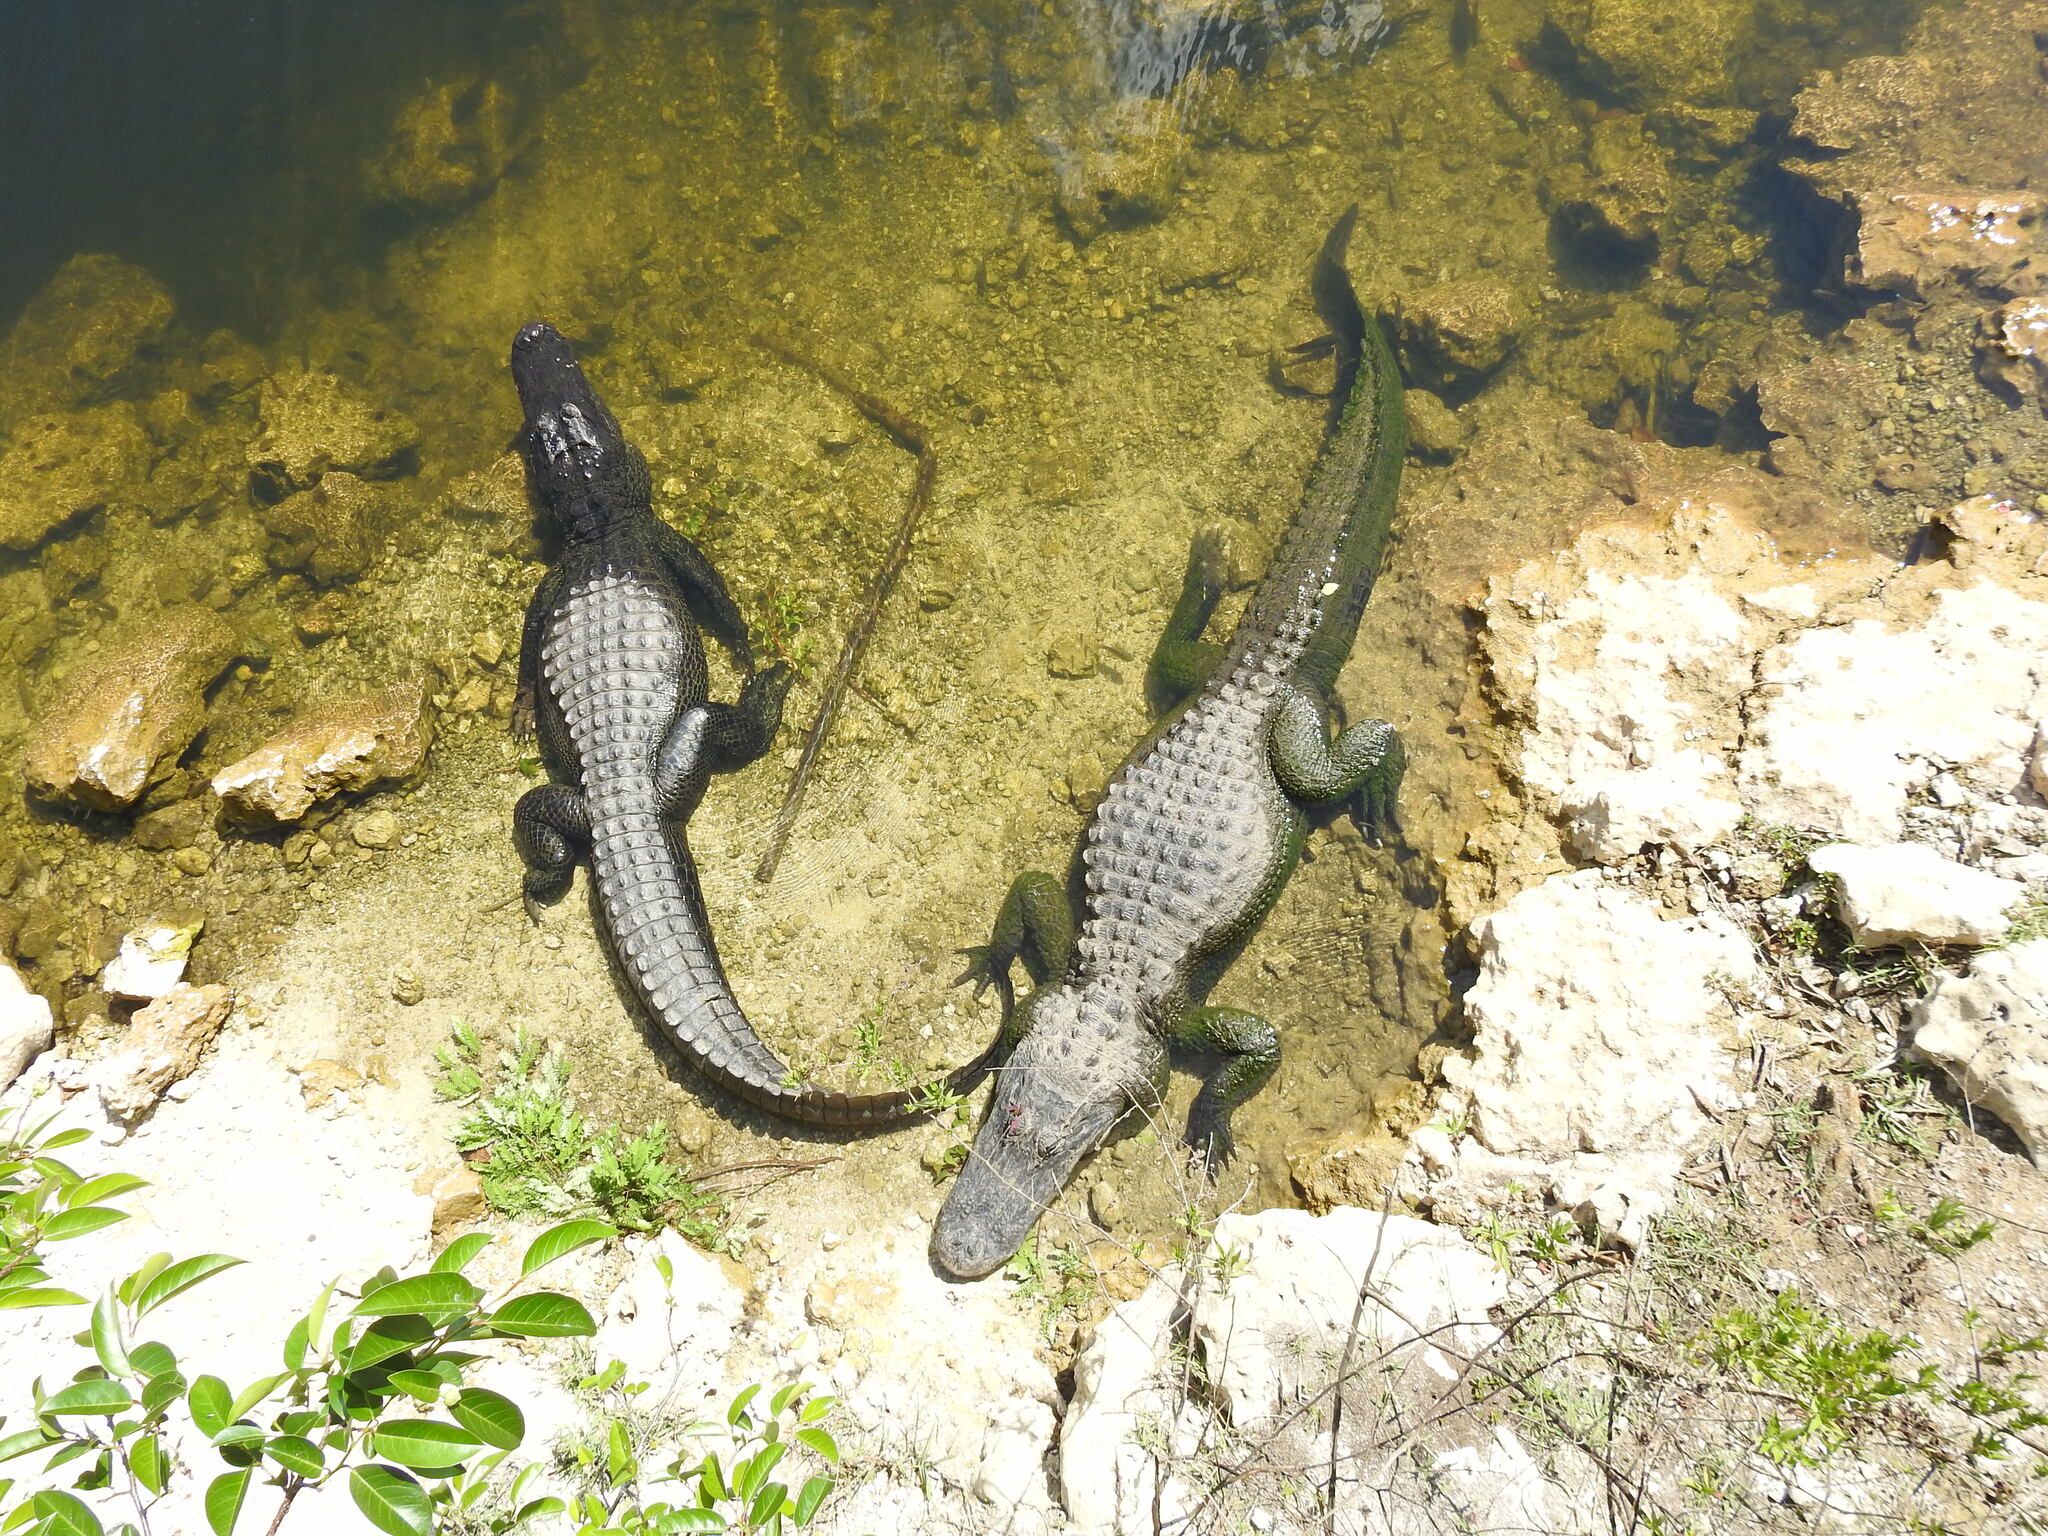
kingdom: Animalia
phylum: Chordata
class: Crocodylia
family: Alligatoridae
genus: Alligator
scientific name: Alligator mississippiensis
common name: American alligator
